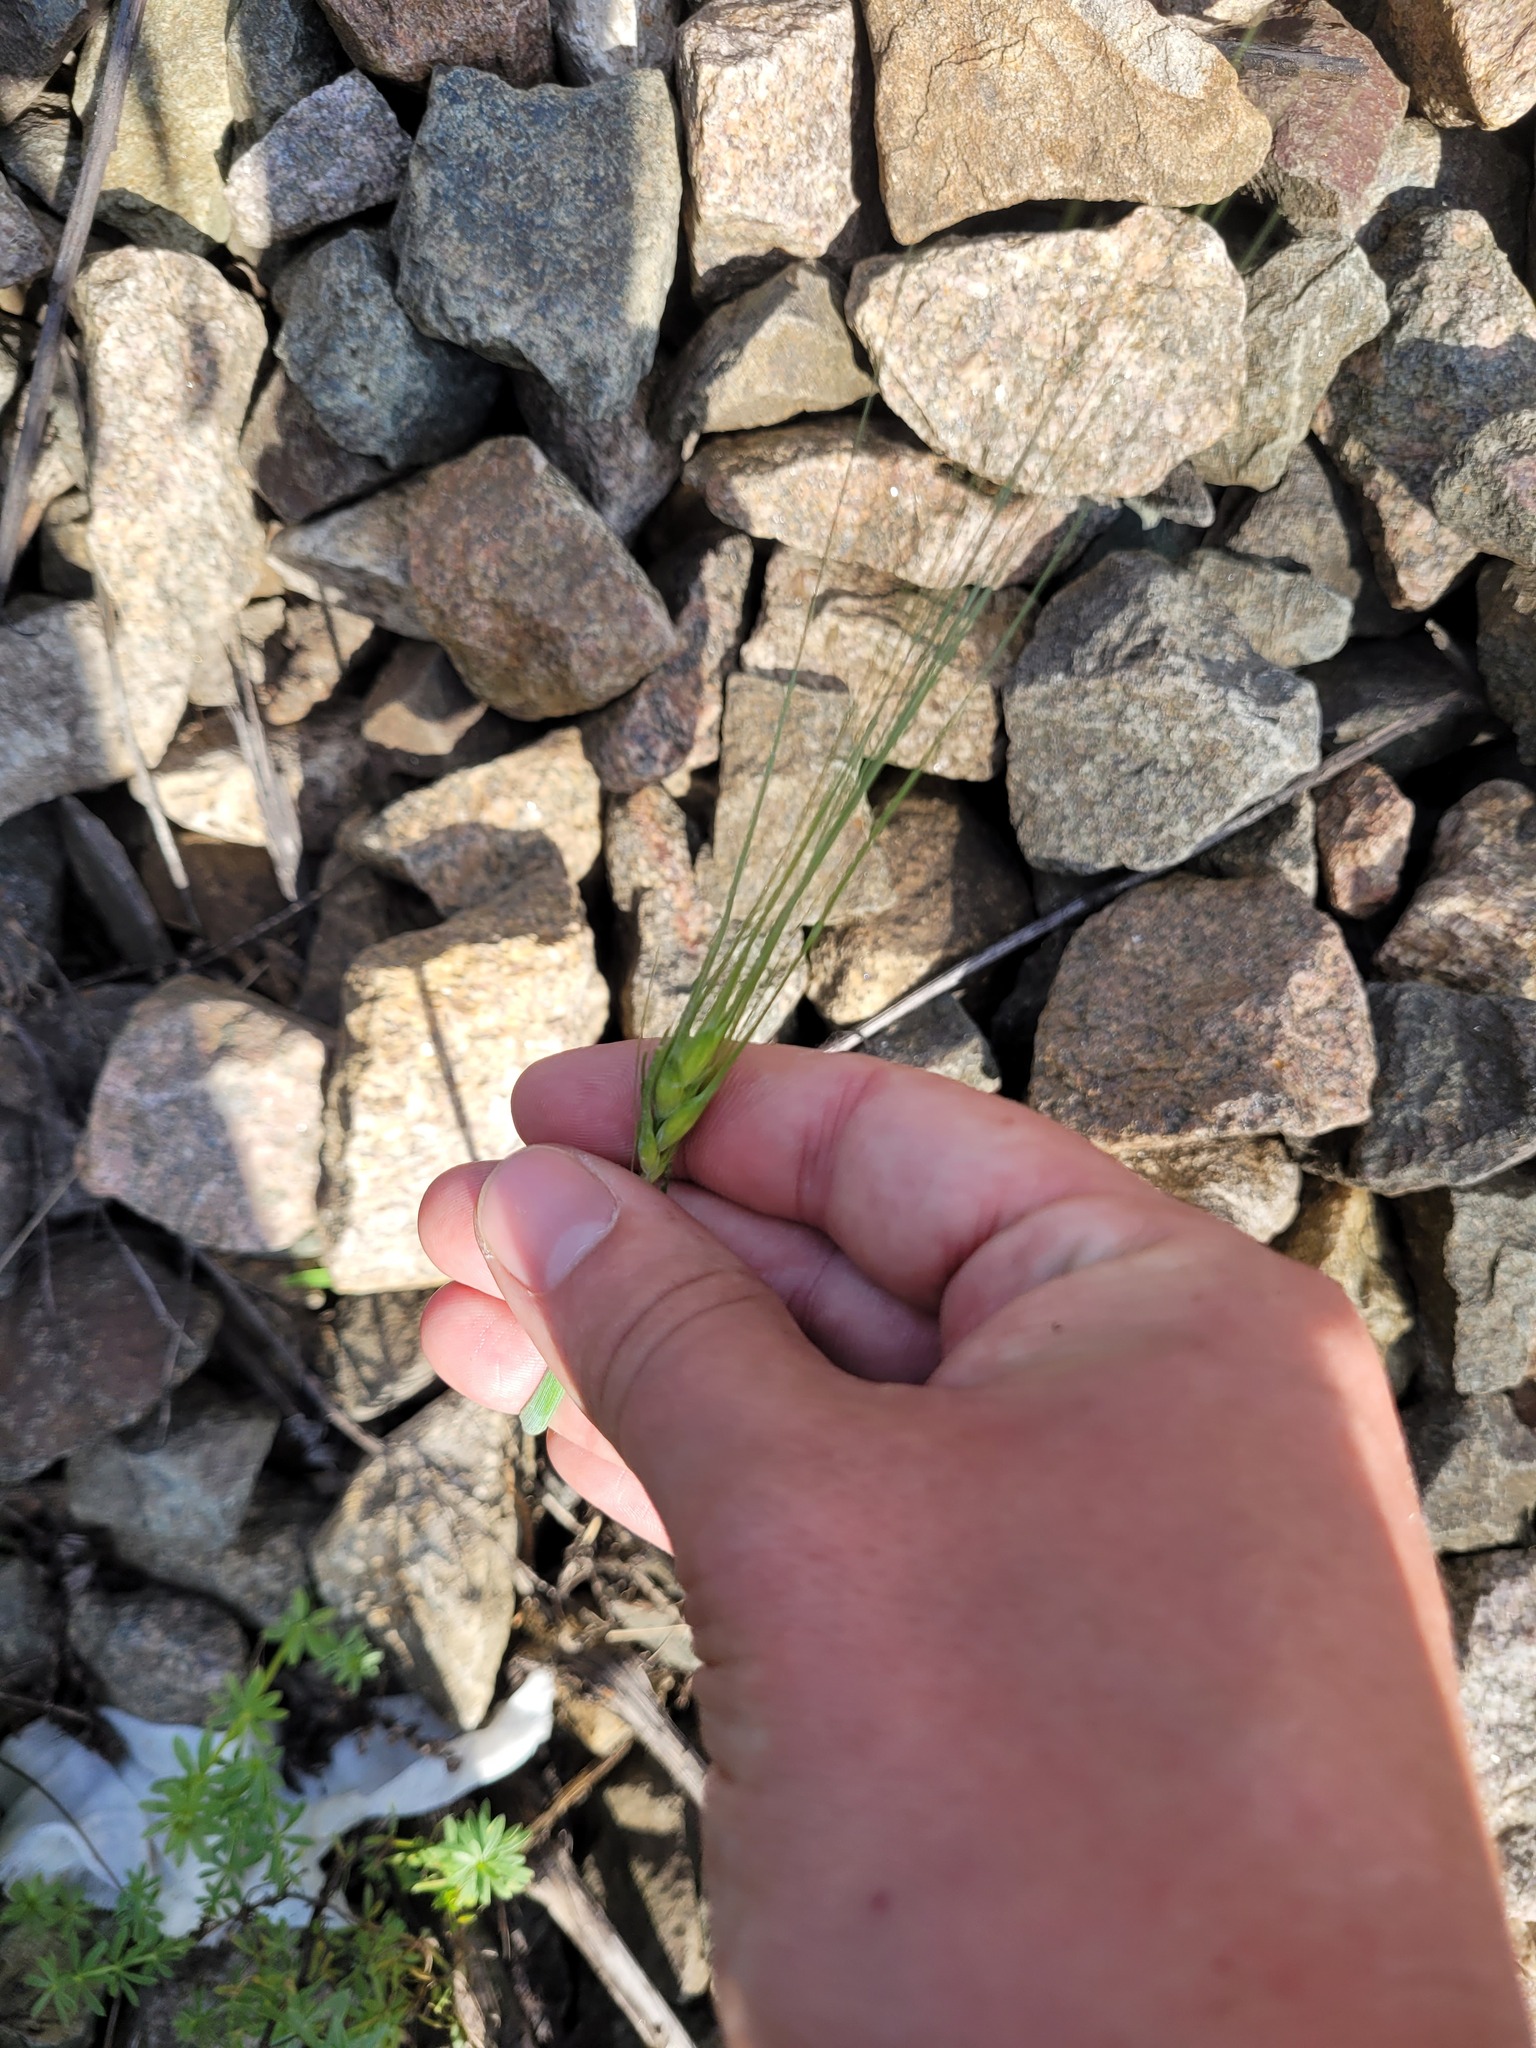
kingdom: Plantae
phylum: Tracheophyta
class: Liliopsida
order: Poales
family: Poaceae
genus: Triticum
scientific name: Triticum aestivum
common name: Common wheat
